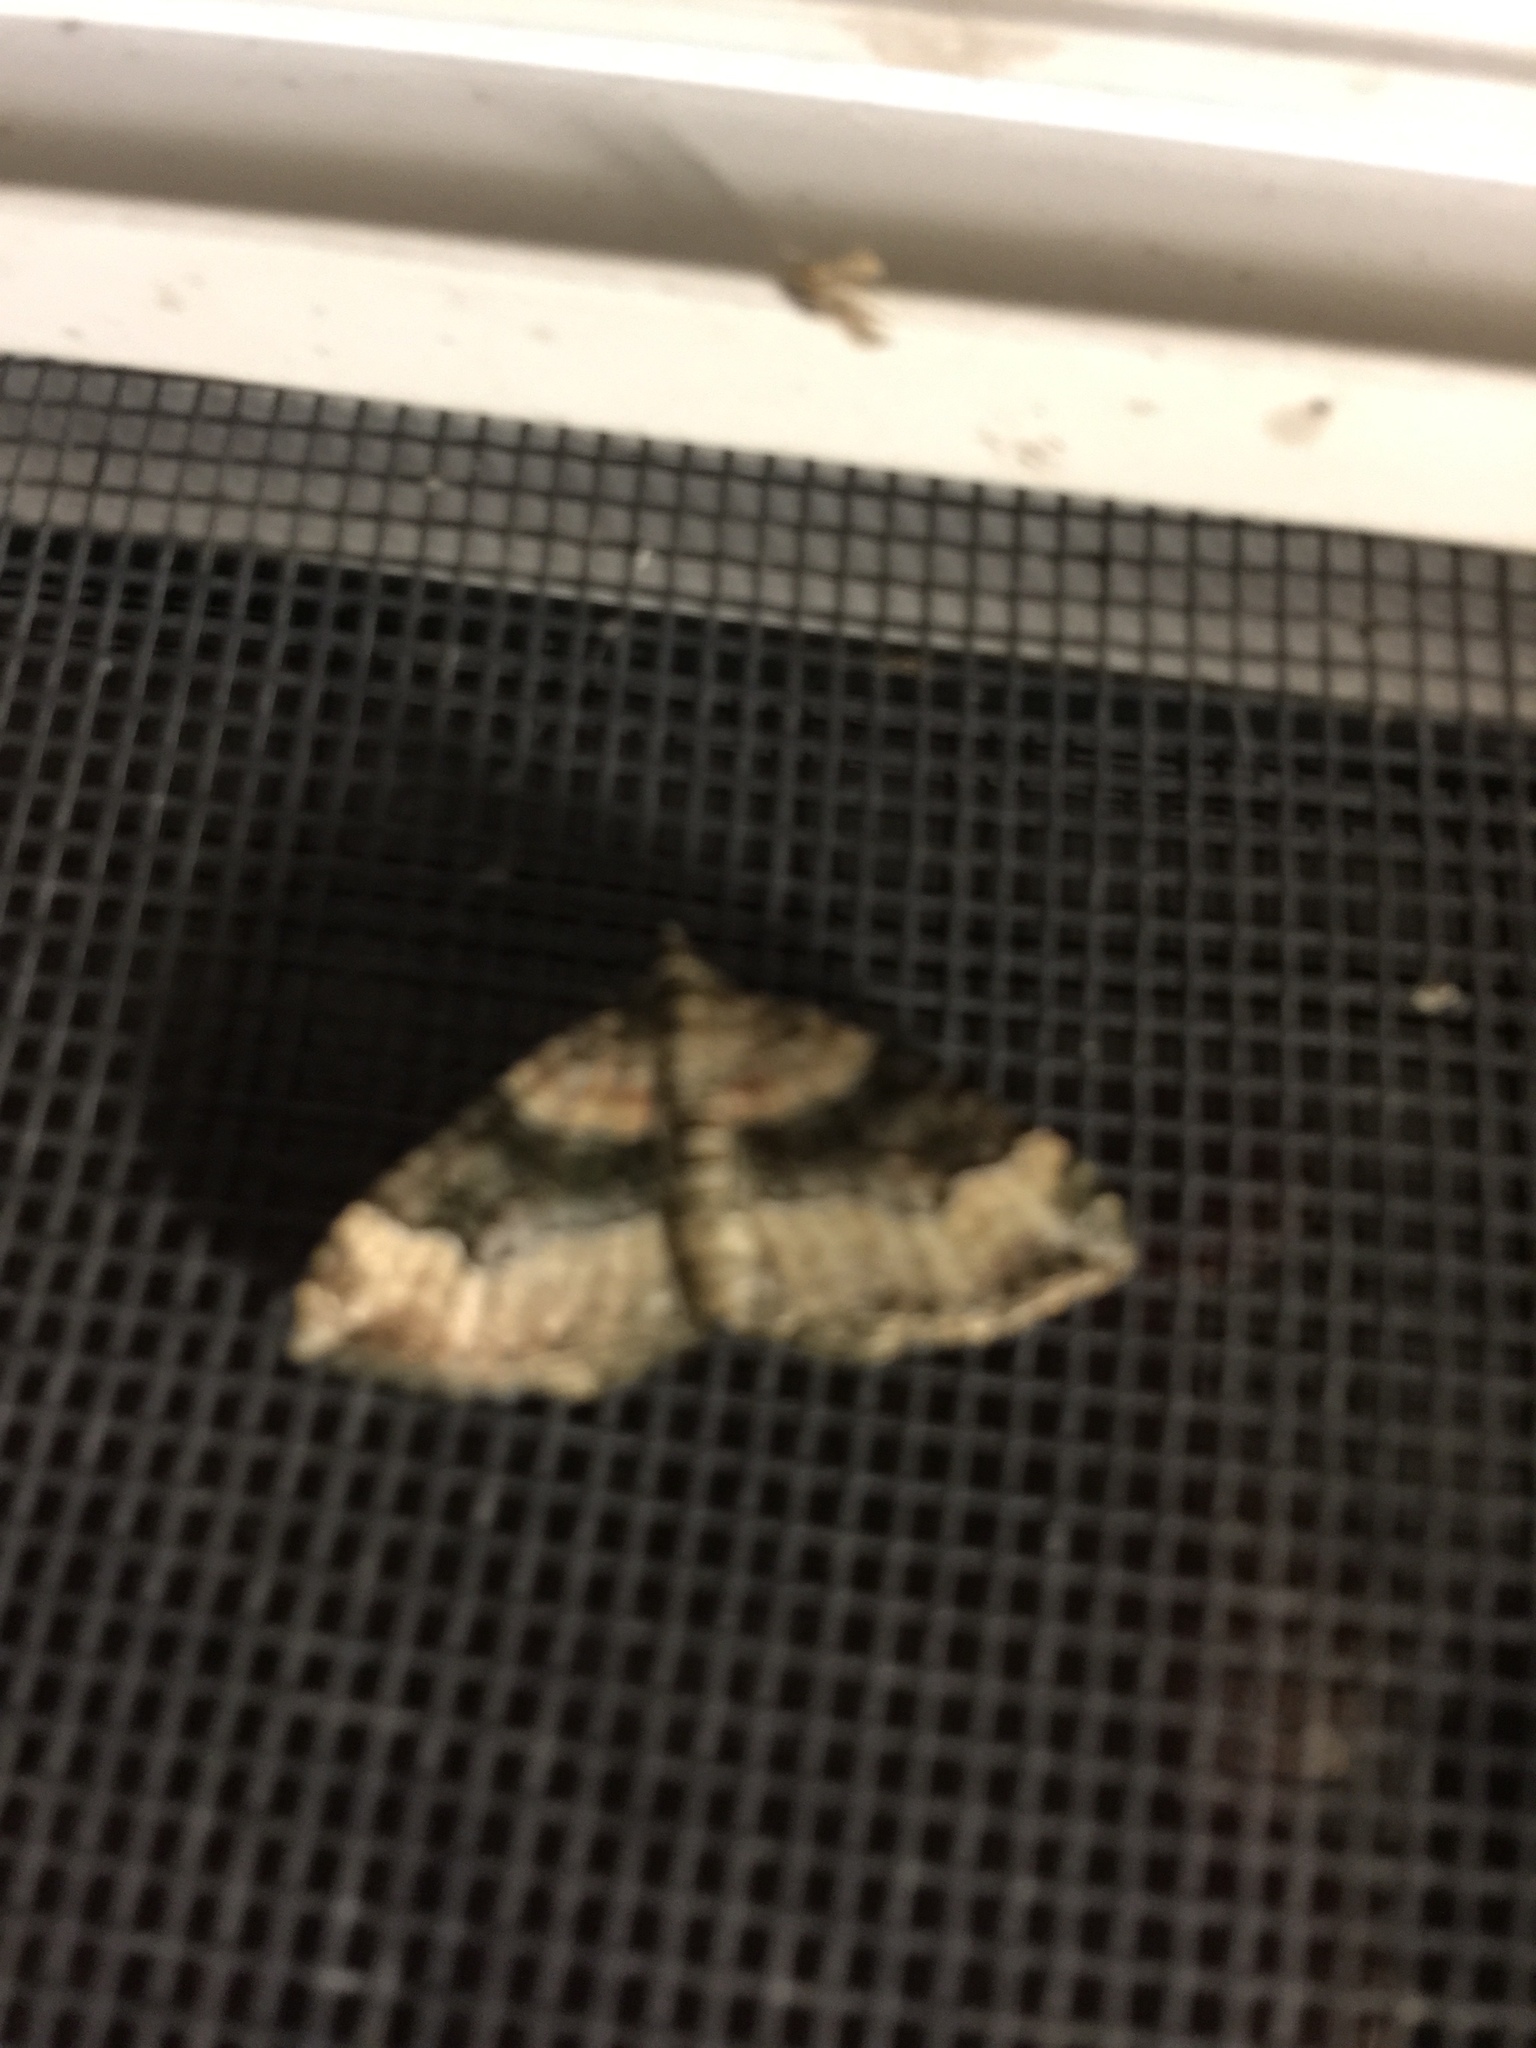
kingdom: Animalia
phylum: Arthropoda
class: Insecta
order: Lepidoptera
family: Geometridae
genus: Xanthorhoe
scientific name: Xanthorhoe ferrugata
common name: Dark-barred twin-spot carpet
